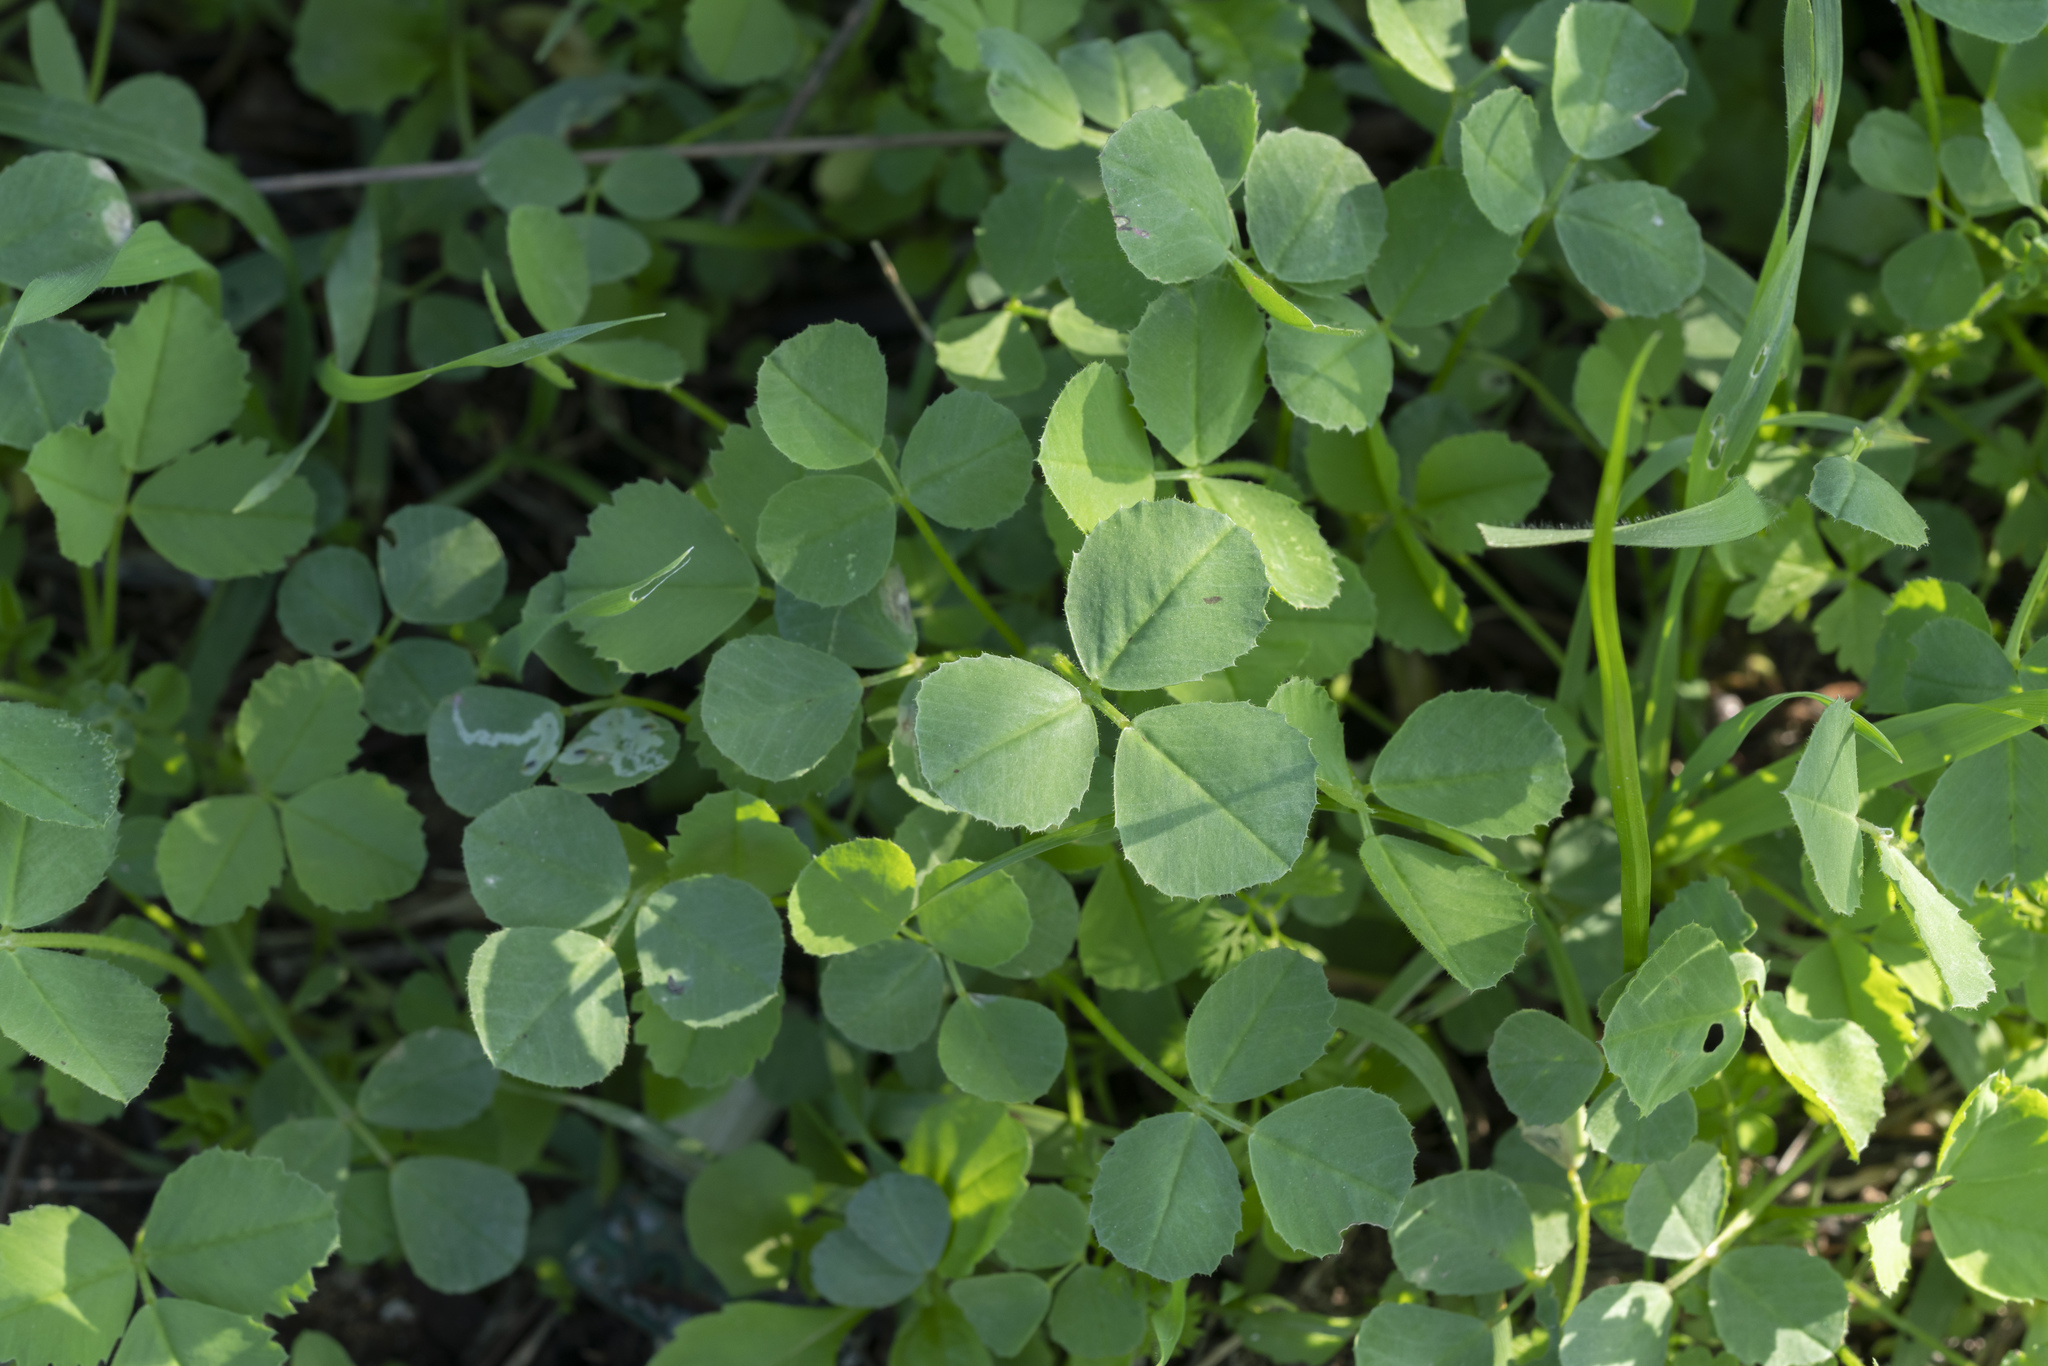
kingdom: Plantae
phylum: Tracheophyta
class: Magnoliopsida
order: Fabales
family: Fabaceae
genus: Medicago
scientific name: Medicago
